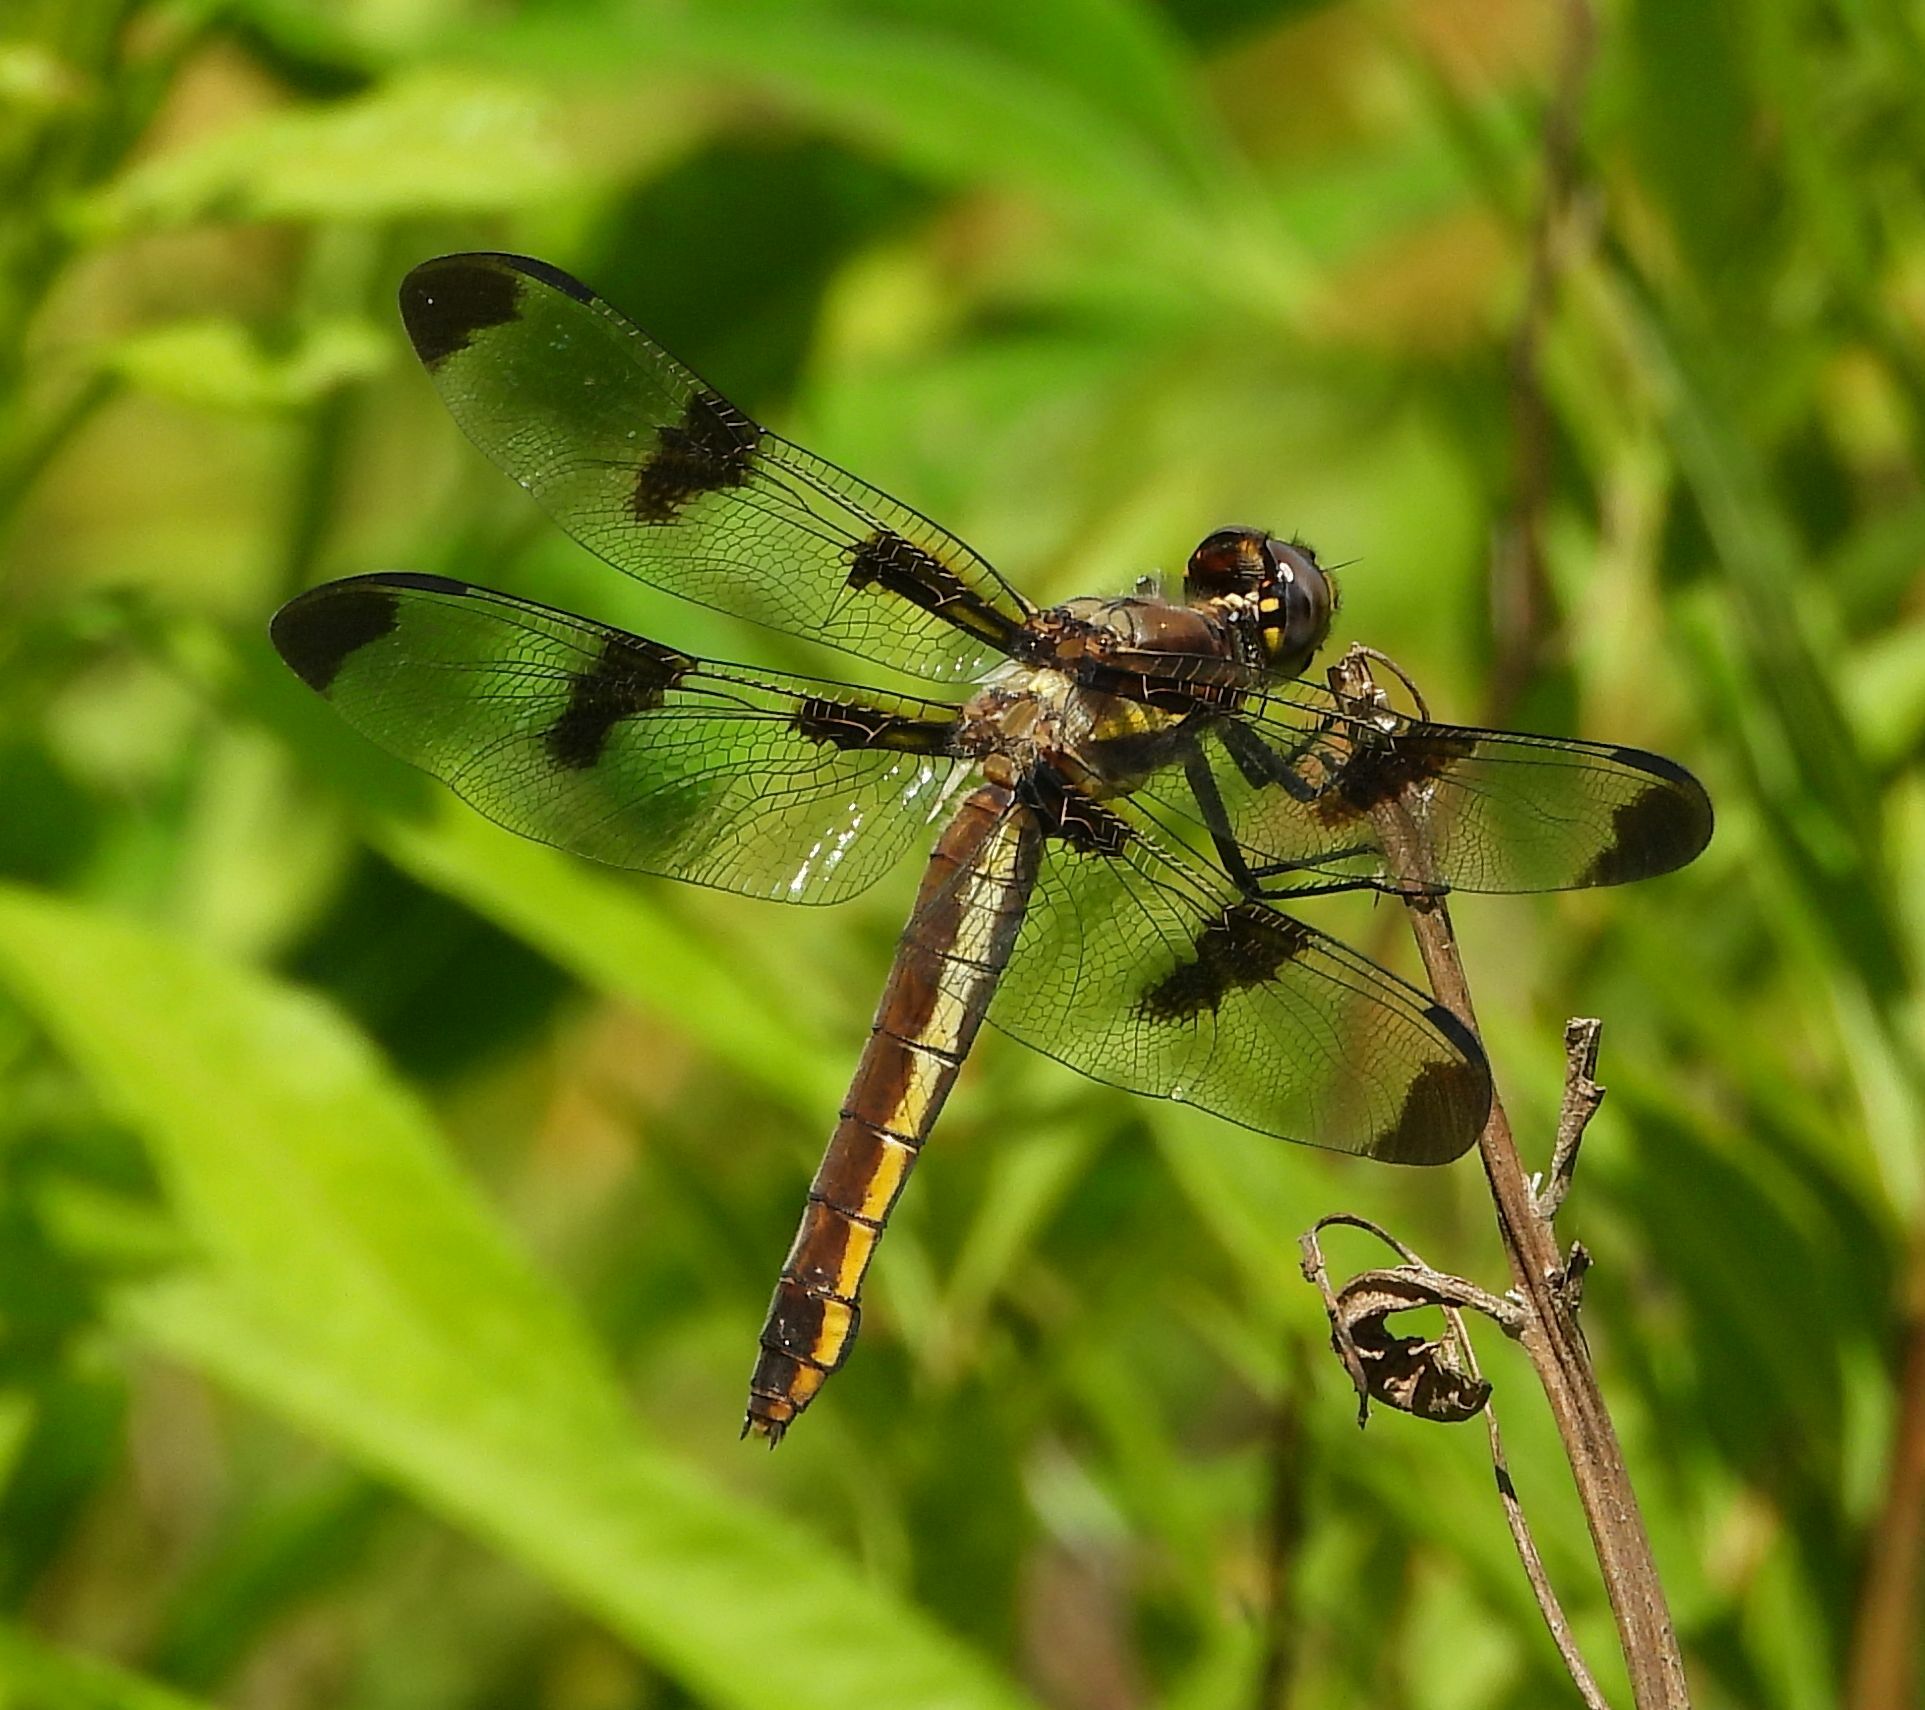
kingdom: Animalia
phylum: Arthropoda
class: Insecta
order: Odonata
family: Libellulidae
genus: Libellula
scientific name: Libellula pulchella
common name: Twelve-spotted skimmer
